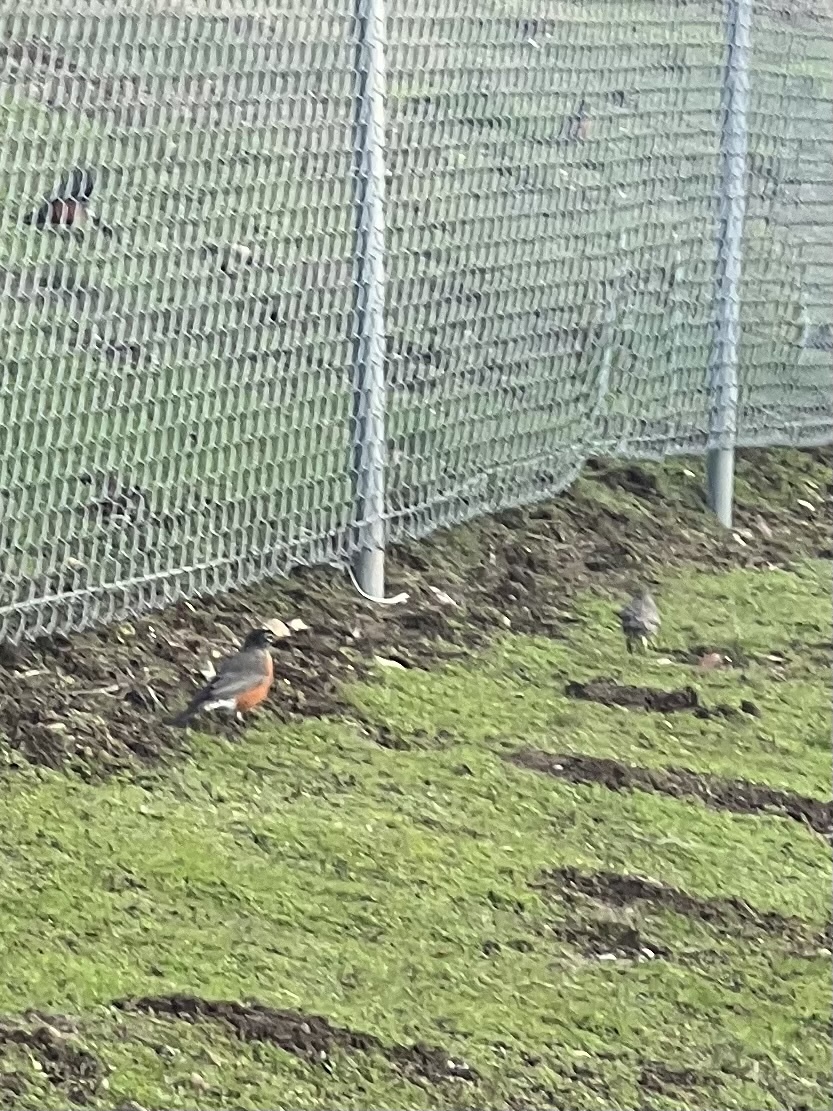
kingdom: Animalia
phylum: Chordata
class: Aves
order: Passeriformes
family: Turdidae
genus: Turdus
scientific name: Turdus migratorius
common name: American robin
